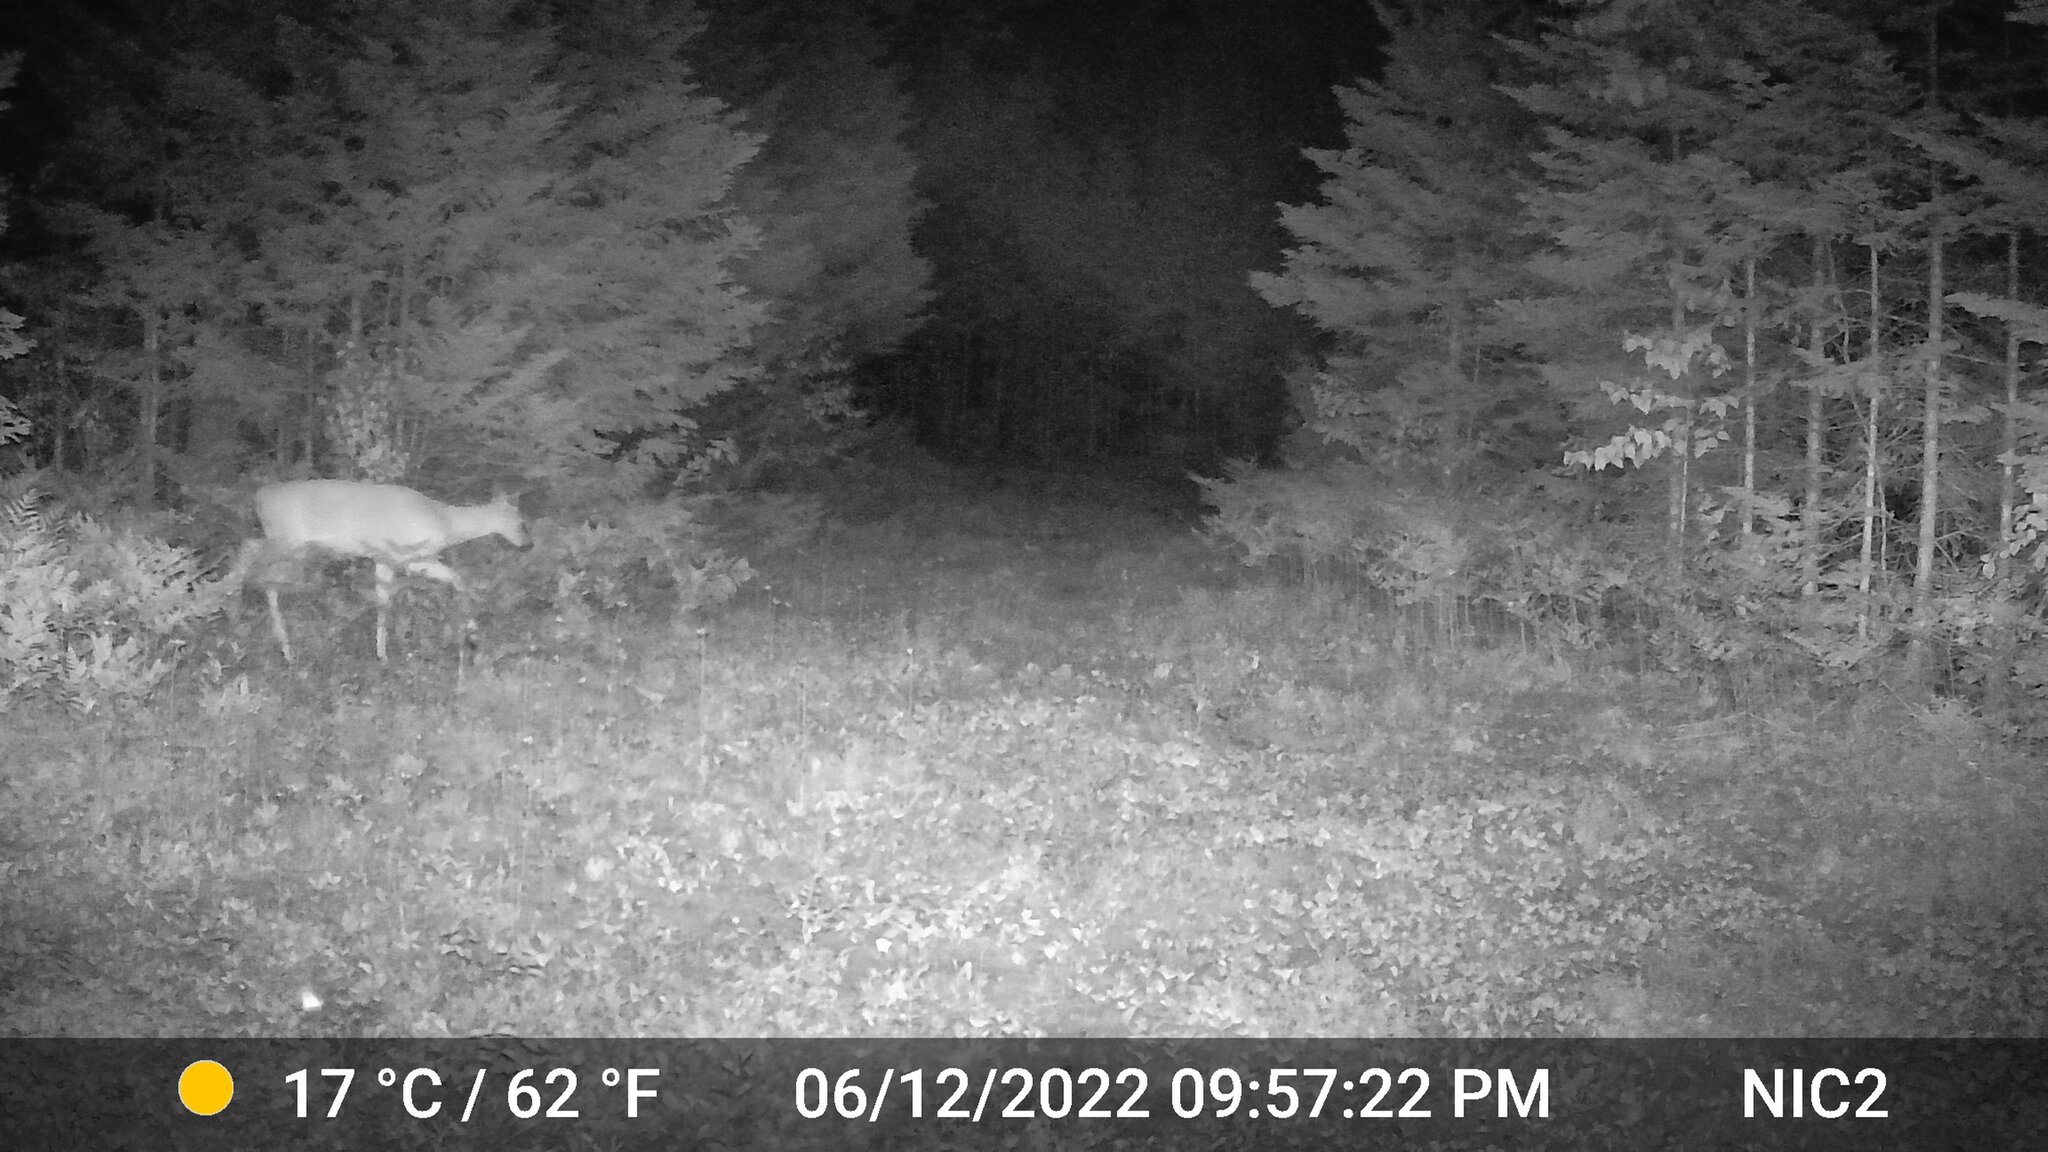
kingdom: Animalia
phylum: Chordata
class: Mammalia
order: Artiodactyla
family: Cervidae
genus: Odocoileus
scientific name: Odocoileus virginianus
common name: White-tailed deer
